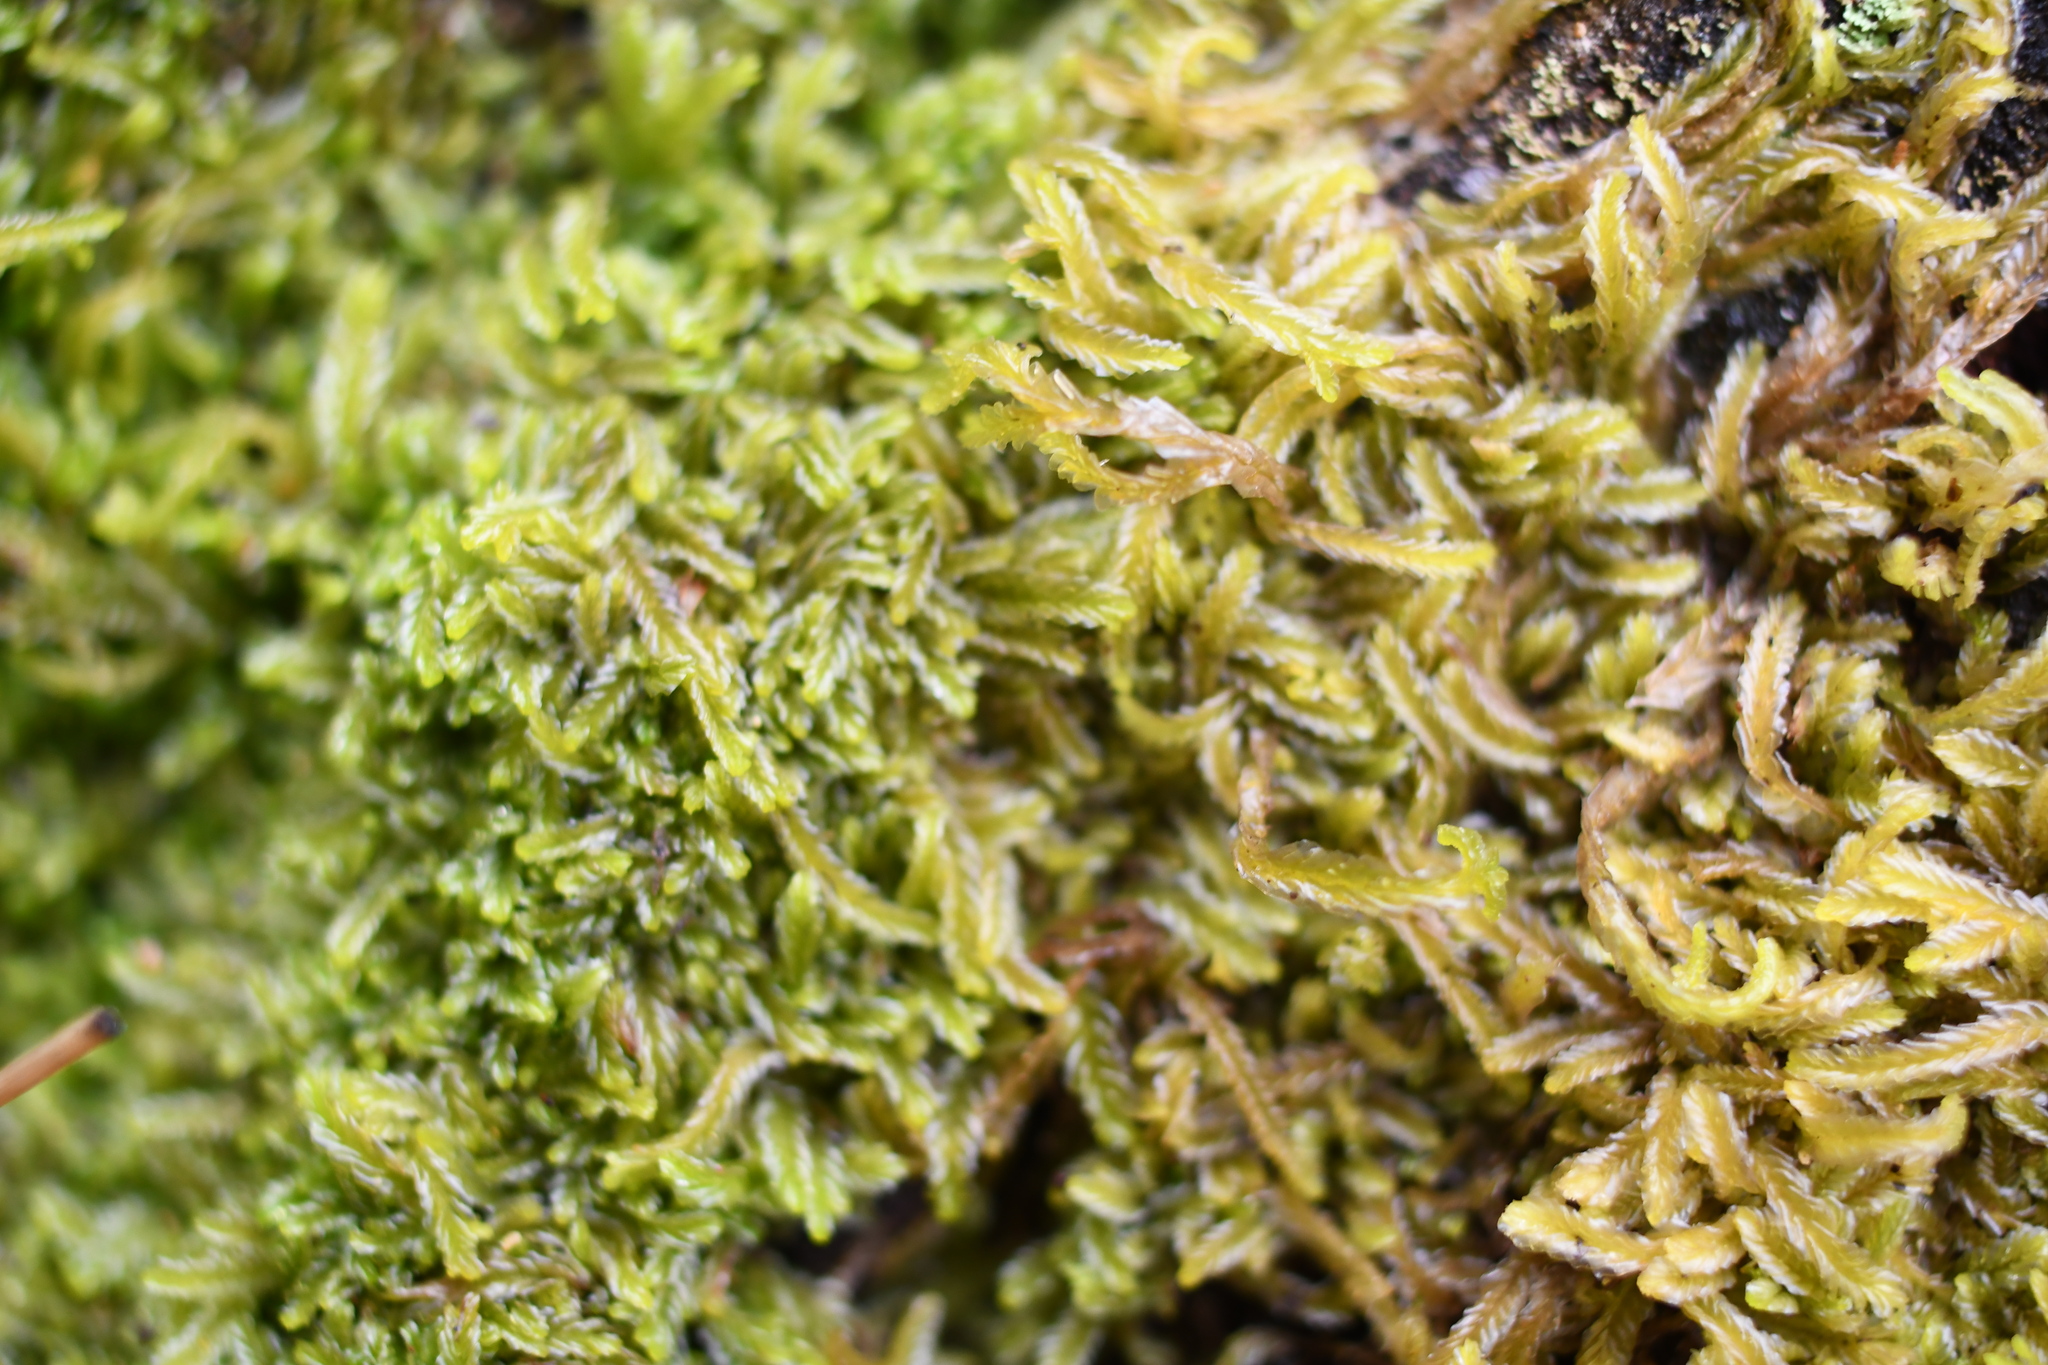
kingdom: Plantae
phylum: Marchantiophyta
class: Jungermanniopsida
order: Jungermanniales
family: Lophocoleaceae
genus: Lophocolea
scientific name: Lophocolea semiteres
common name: Southern crestwort
